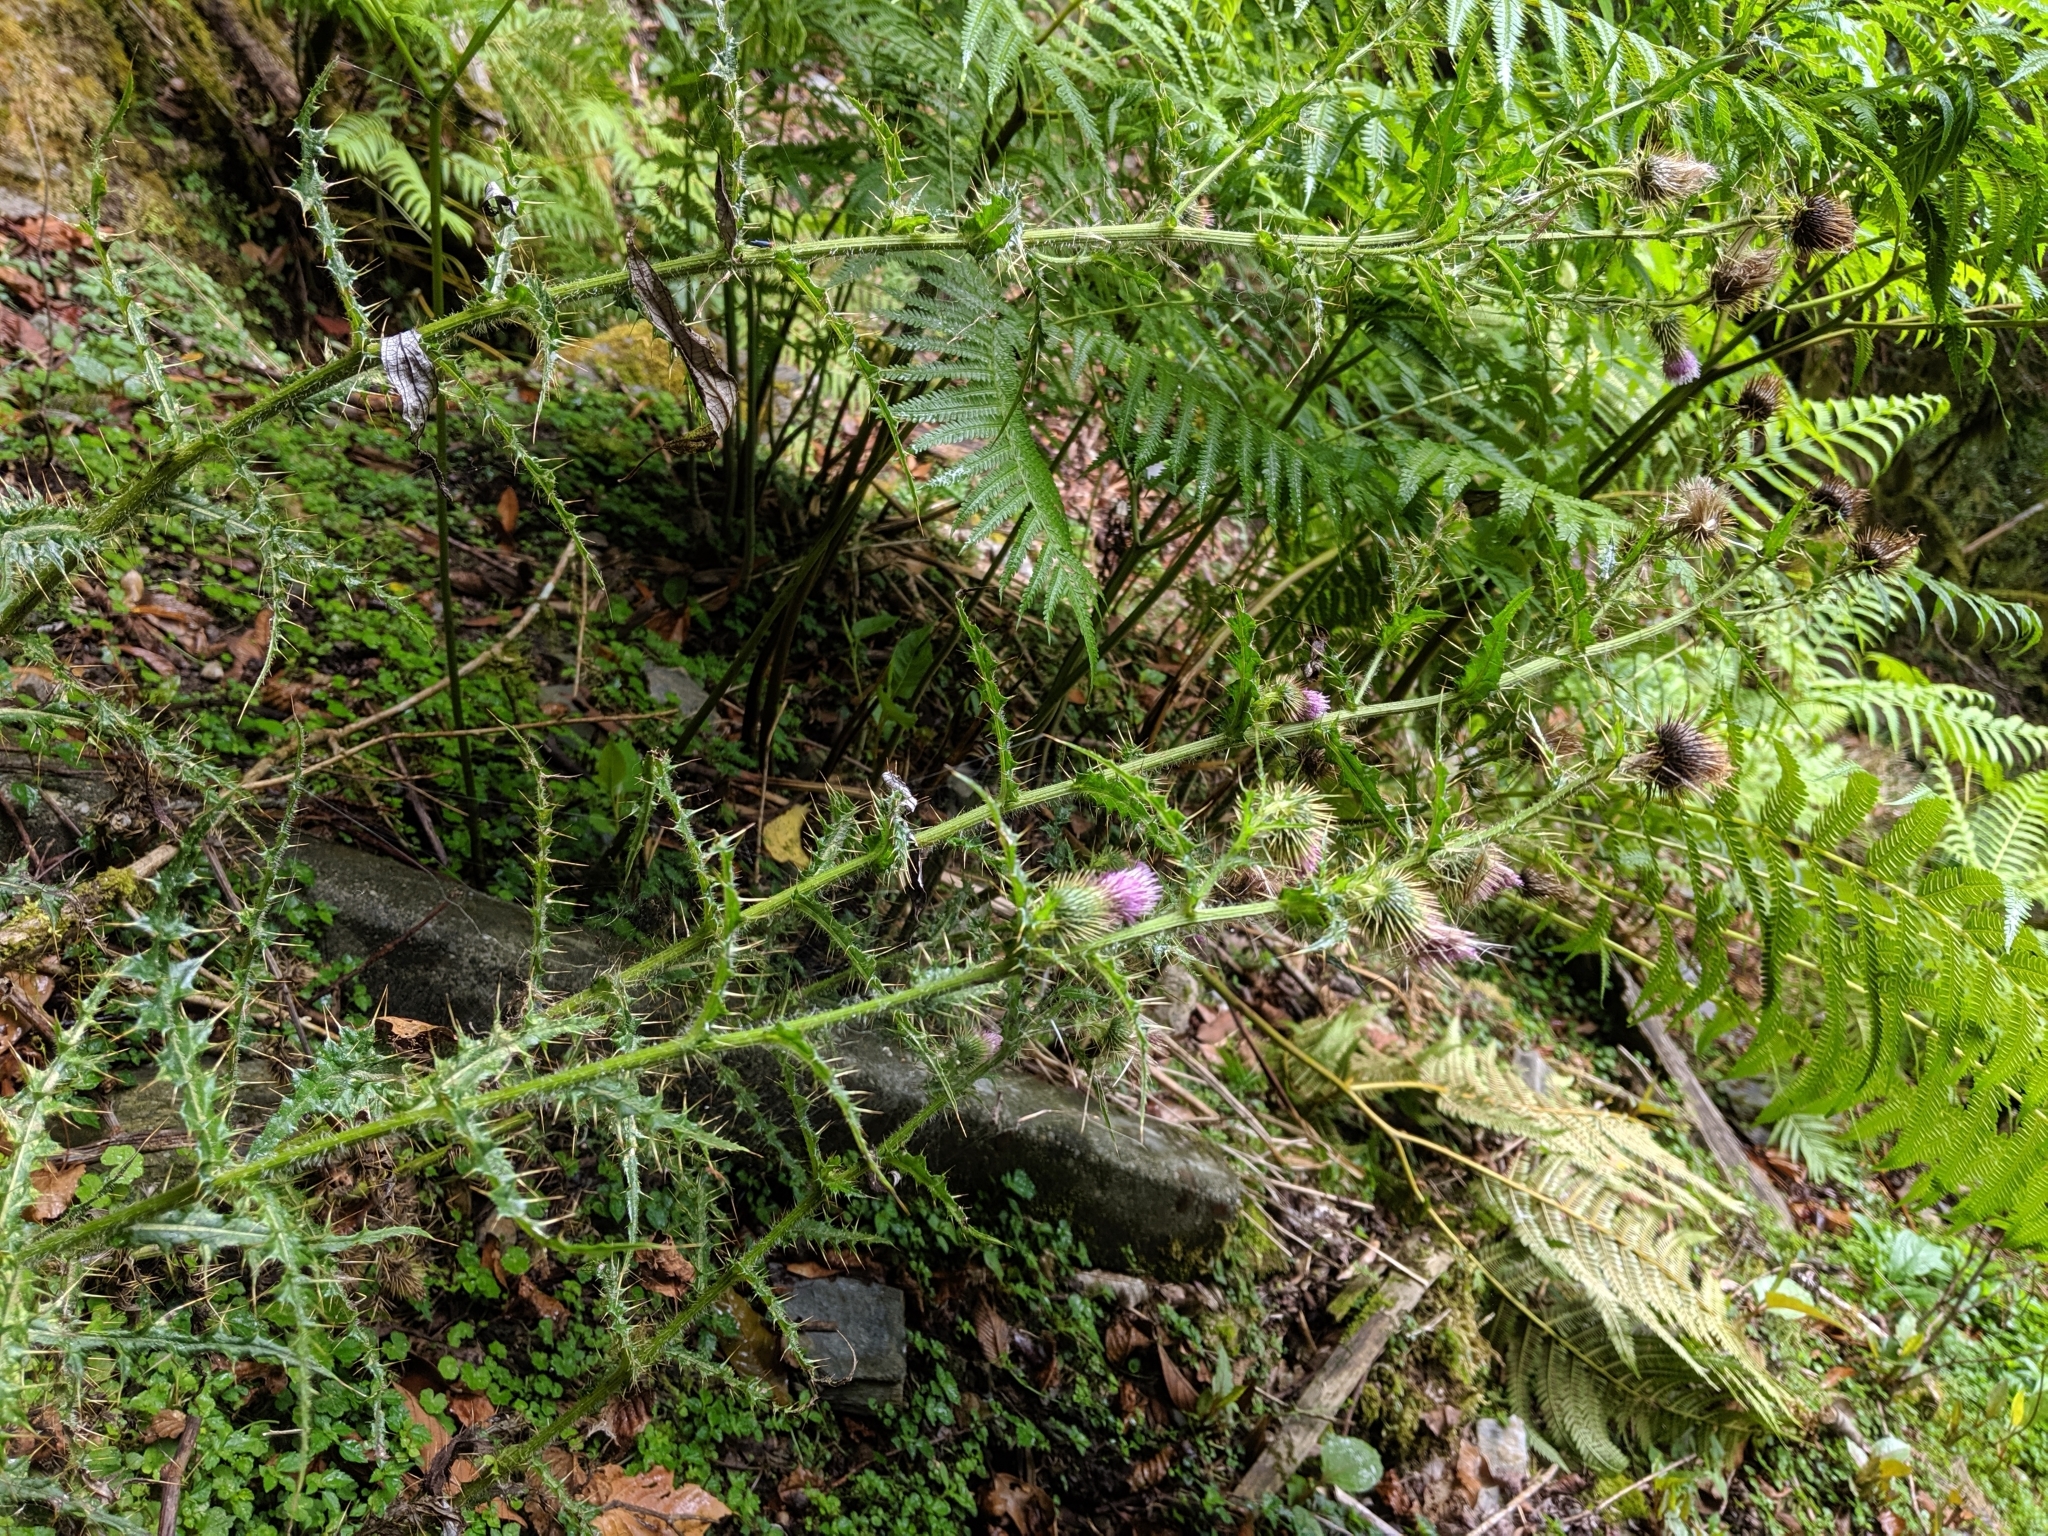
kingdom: Plantae
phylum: Tracheophyta
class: Magnoliopsida
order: Asterales
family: Asteraceae
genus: Cirsium
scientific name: Cirsium ferum
